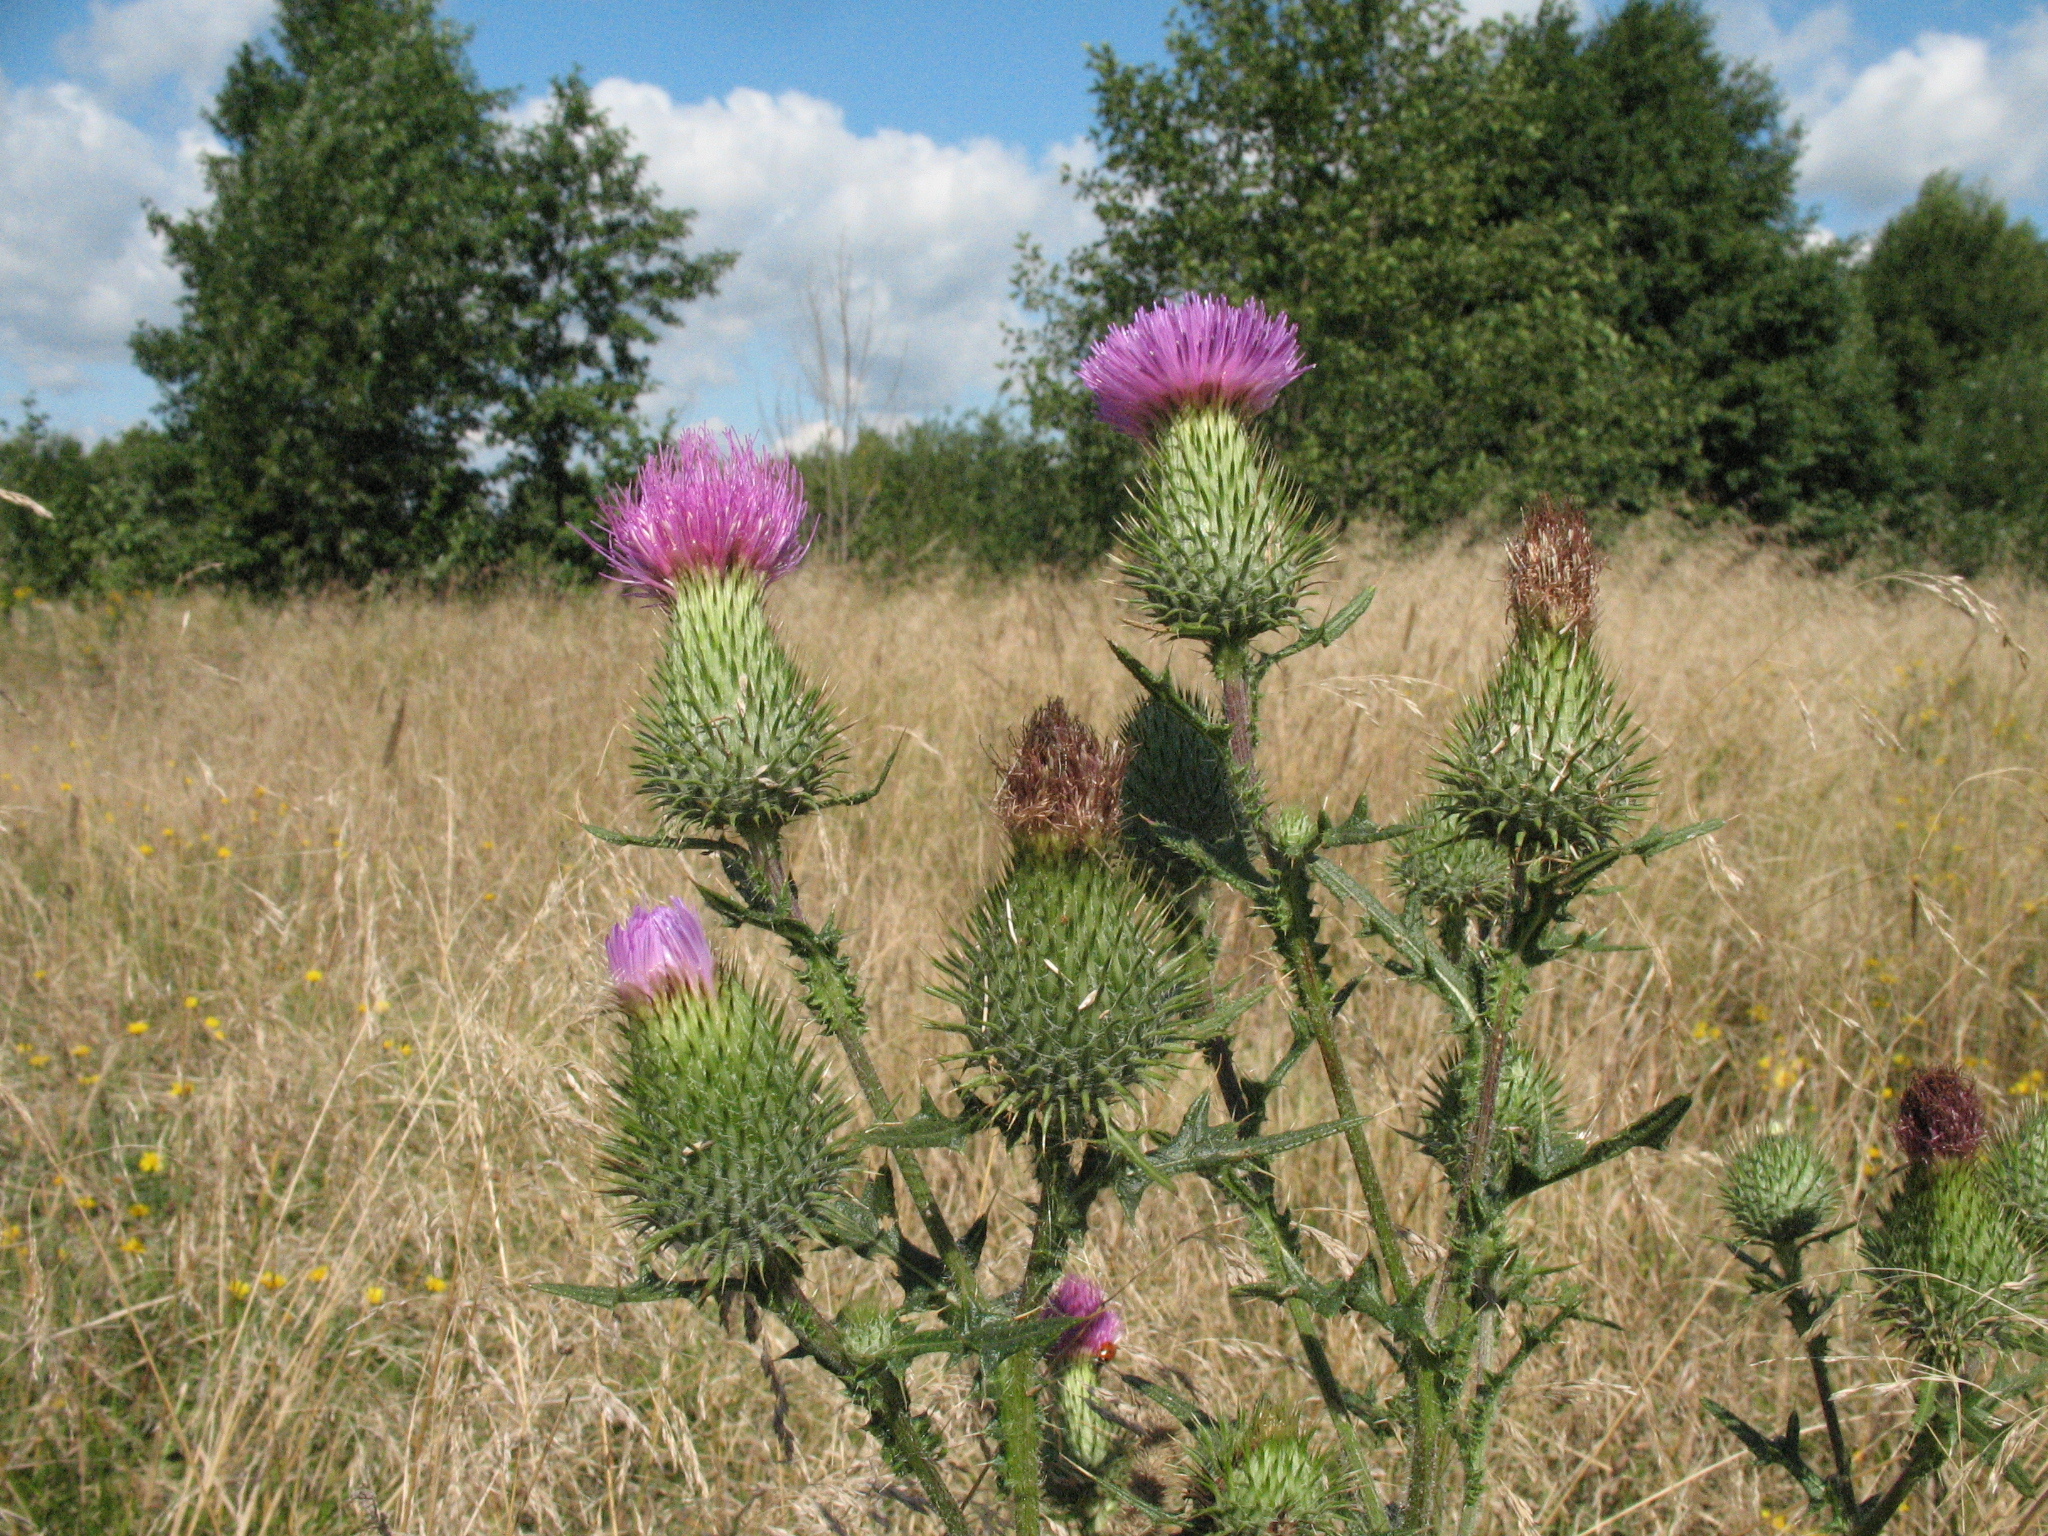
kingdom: Plantae
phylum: Tracheophyta
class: Magnoliopsida
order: Asterales
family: Asteraceae
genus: Cirsium
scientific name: Cirsium vulgare
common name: Bull thistle
